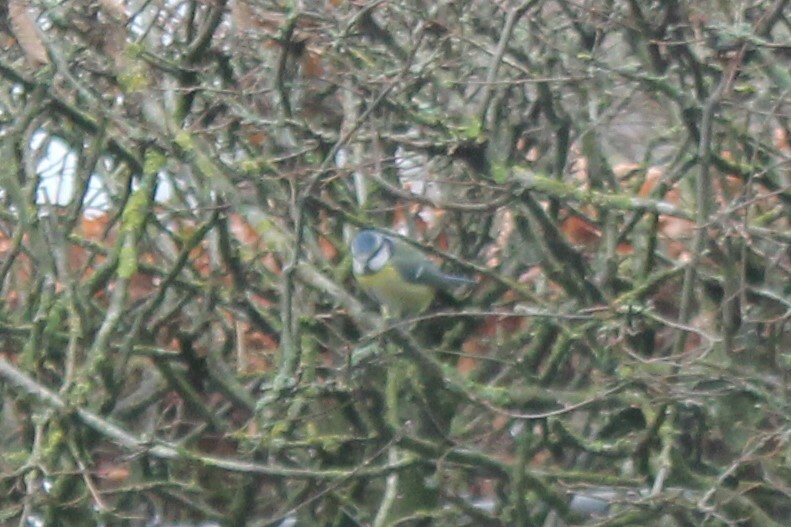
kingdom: Animalia
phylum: Chordata
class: Aves
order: Passeriformes
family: Paridae
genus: Cyanistes
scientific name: Cyanistes caeruleus
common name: Eurasian blue tit
